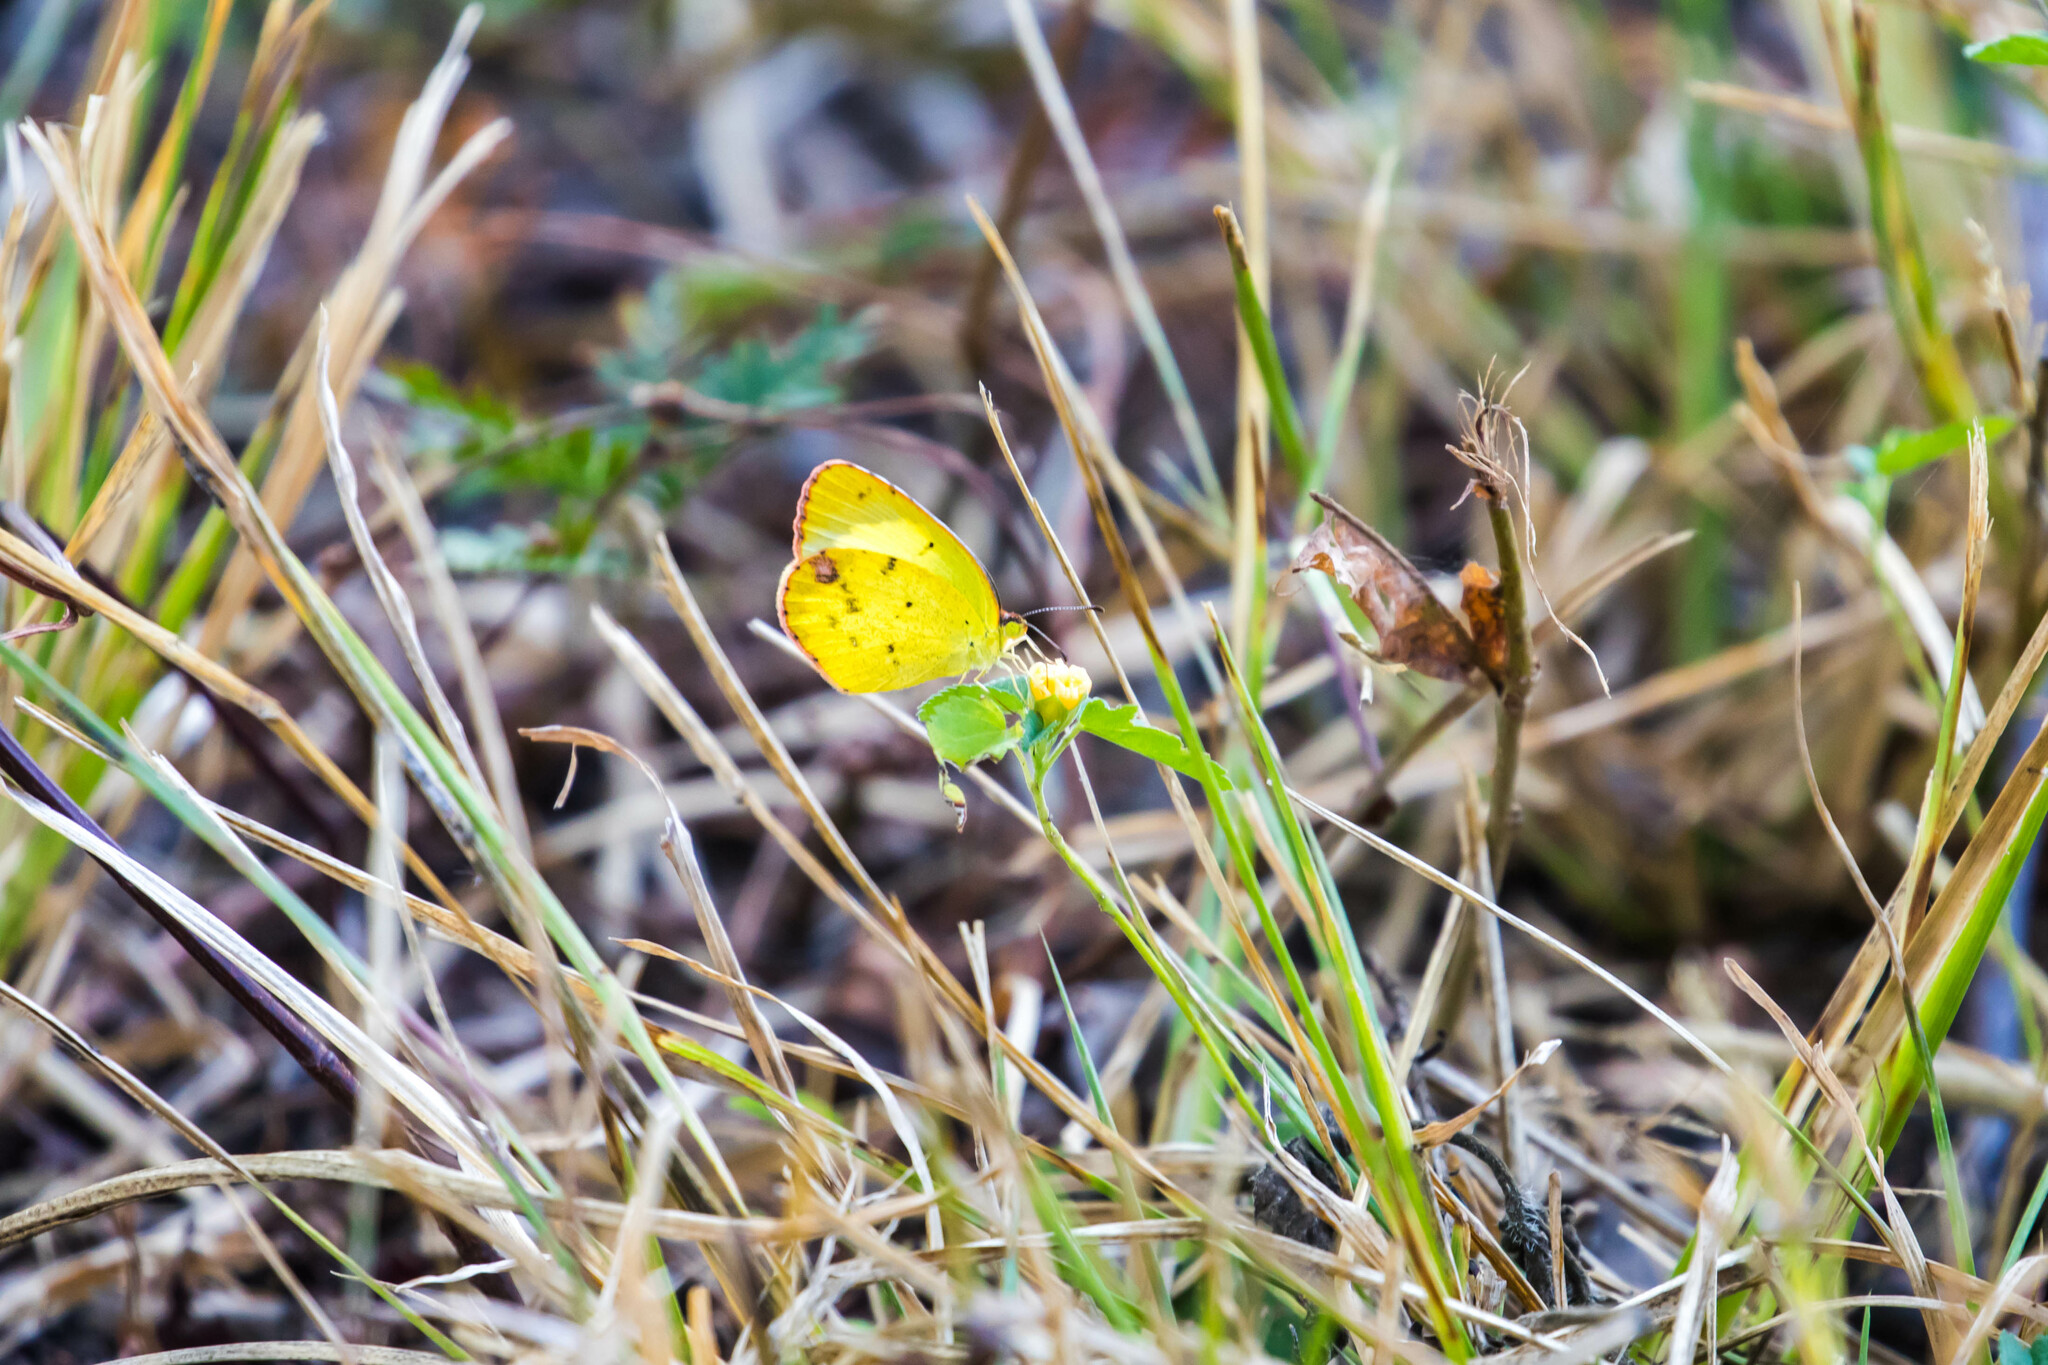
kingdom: Animalia
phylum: Arthropoda
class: Insecta
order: Lepidoptera
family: Pieridae
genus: Pyrisitia
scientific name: Pyrisitia lisa
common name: Little yellow
